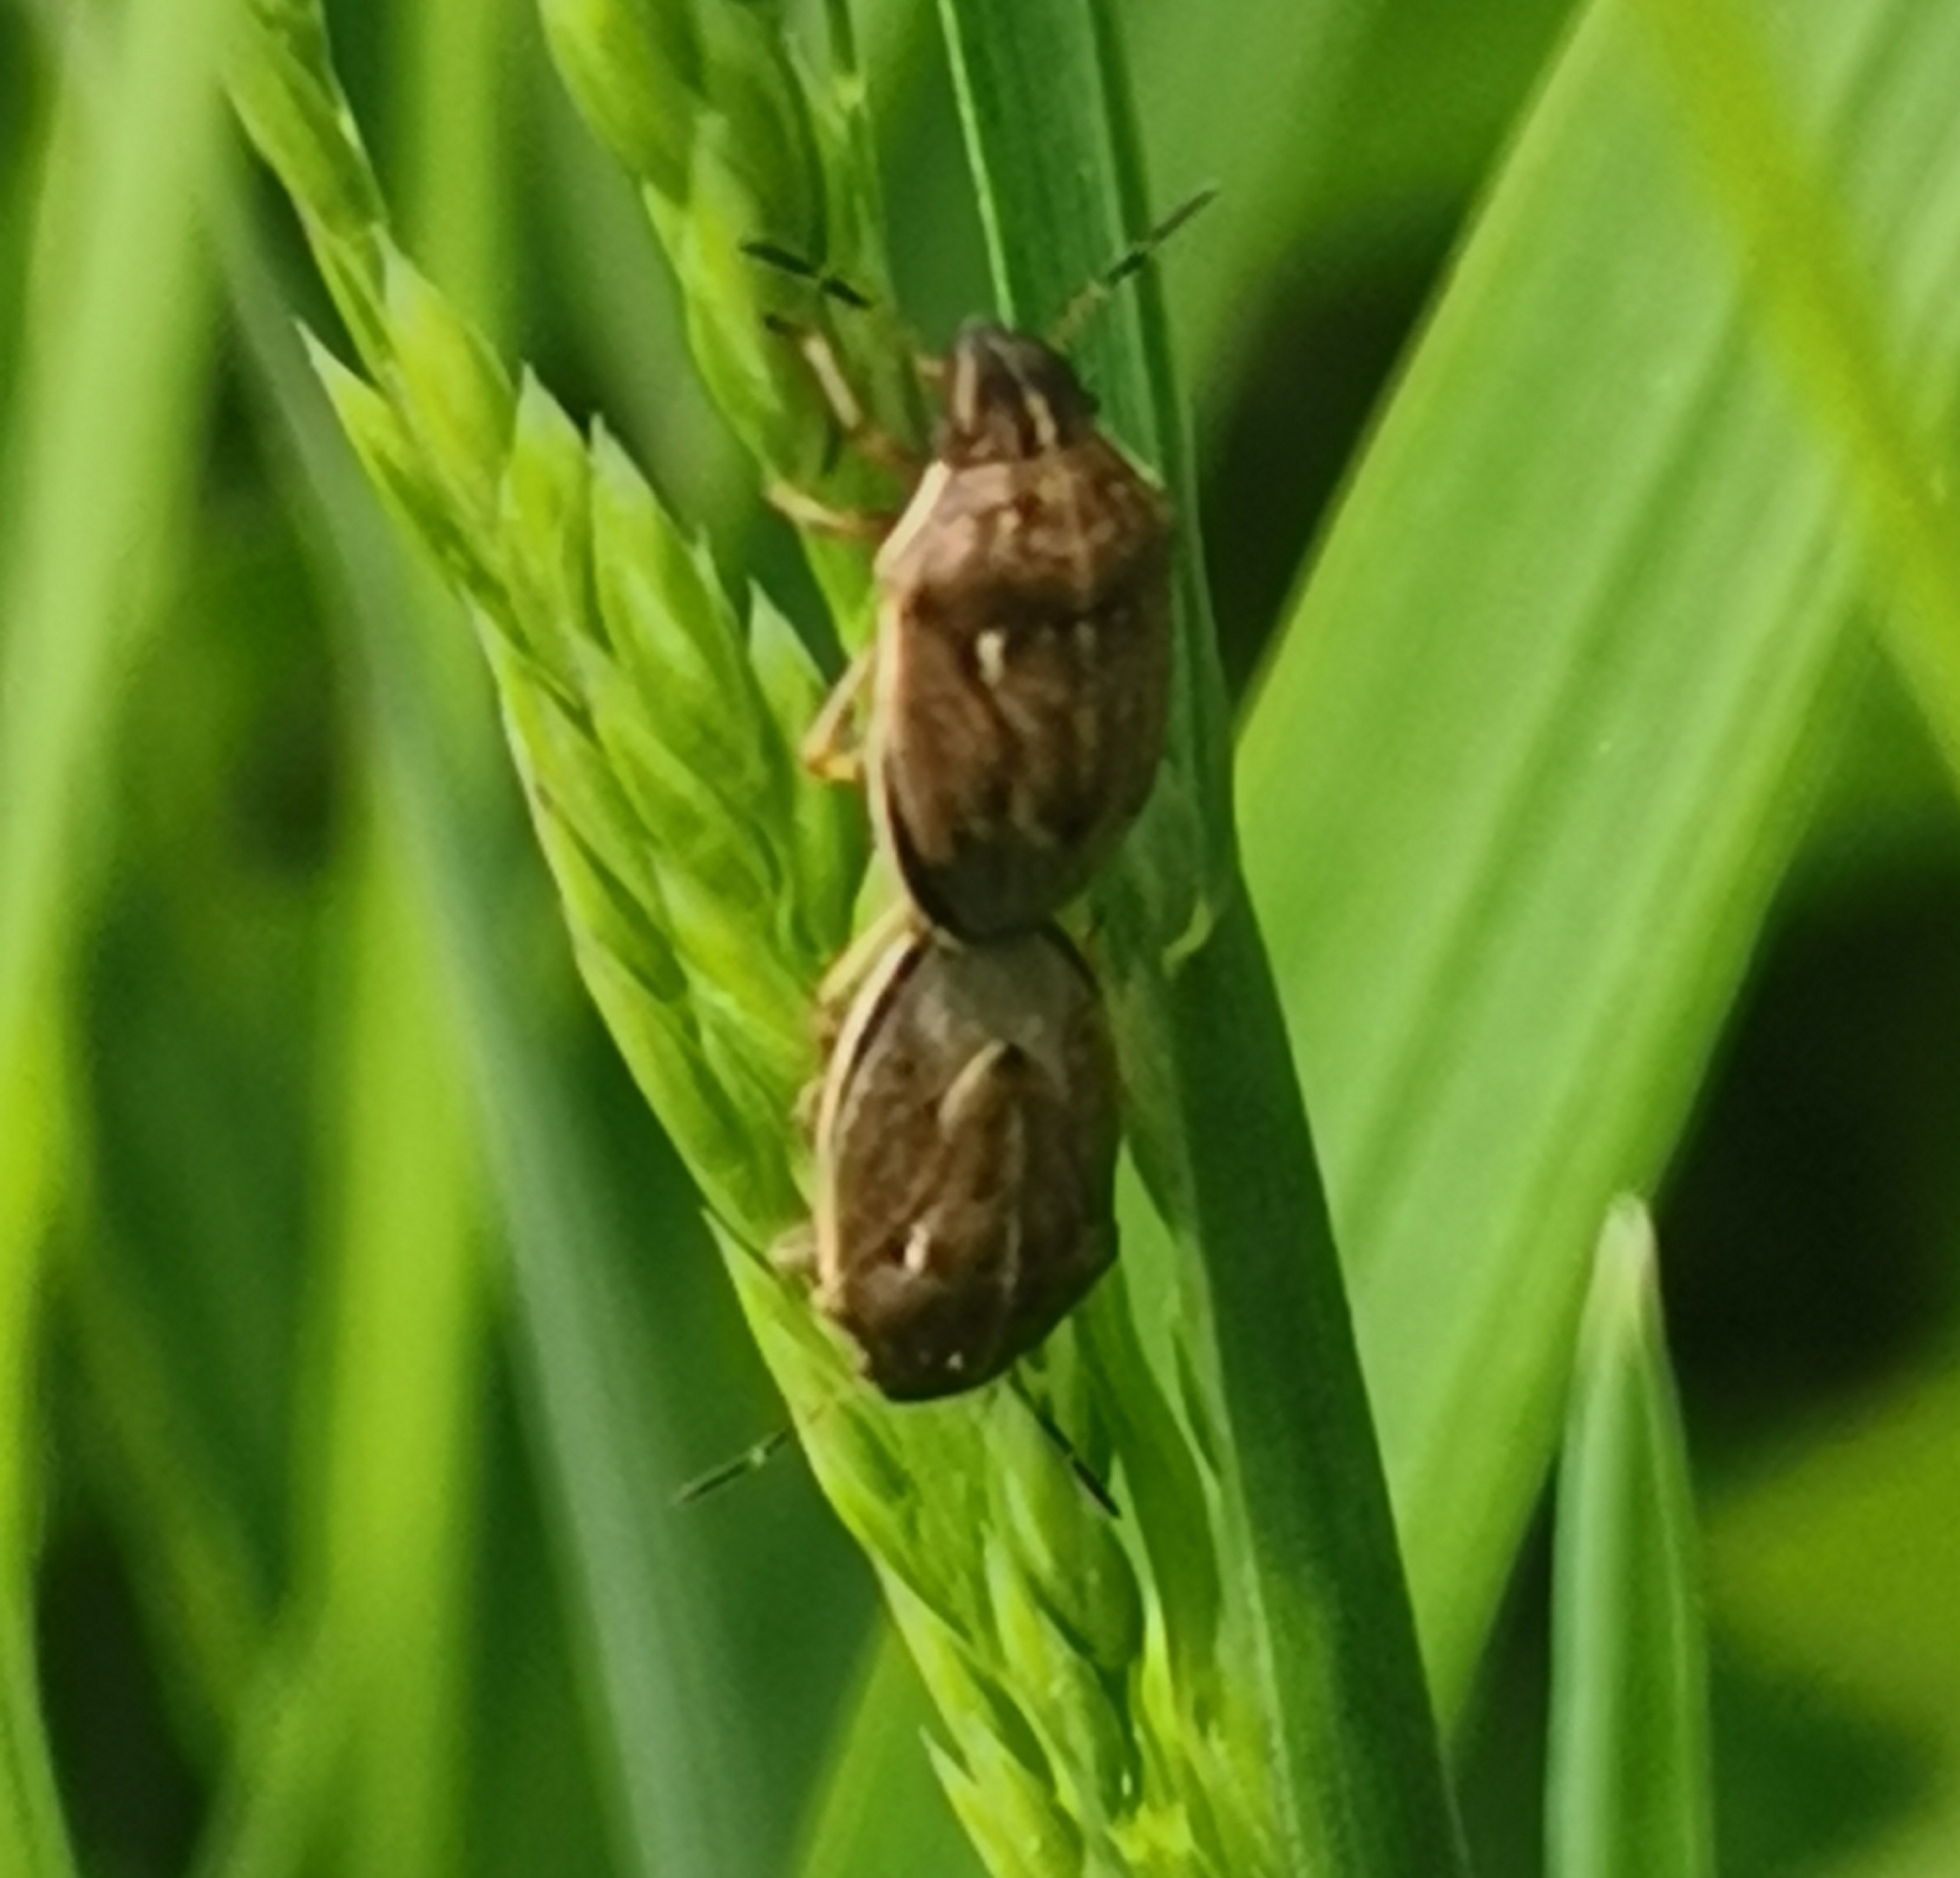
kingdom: Animalia
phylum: Arthropoda
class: Insecta
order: Hemiptera
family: Pentatomidae
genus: Neottiglossa
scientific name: Neottiglossa pusilla
